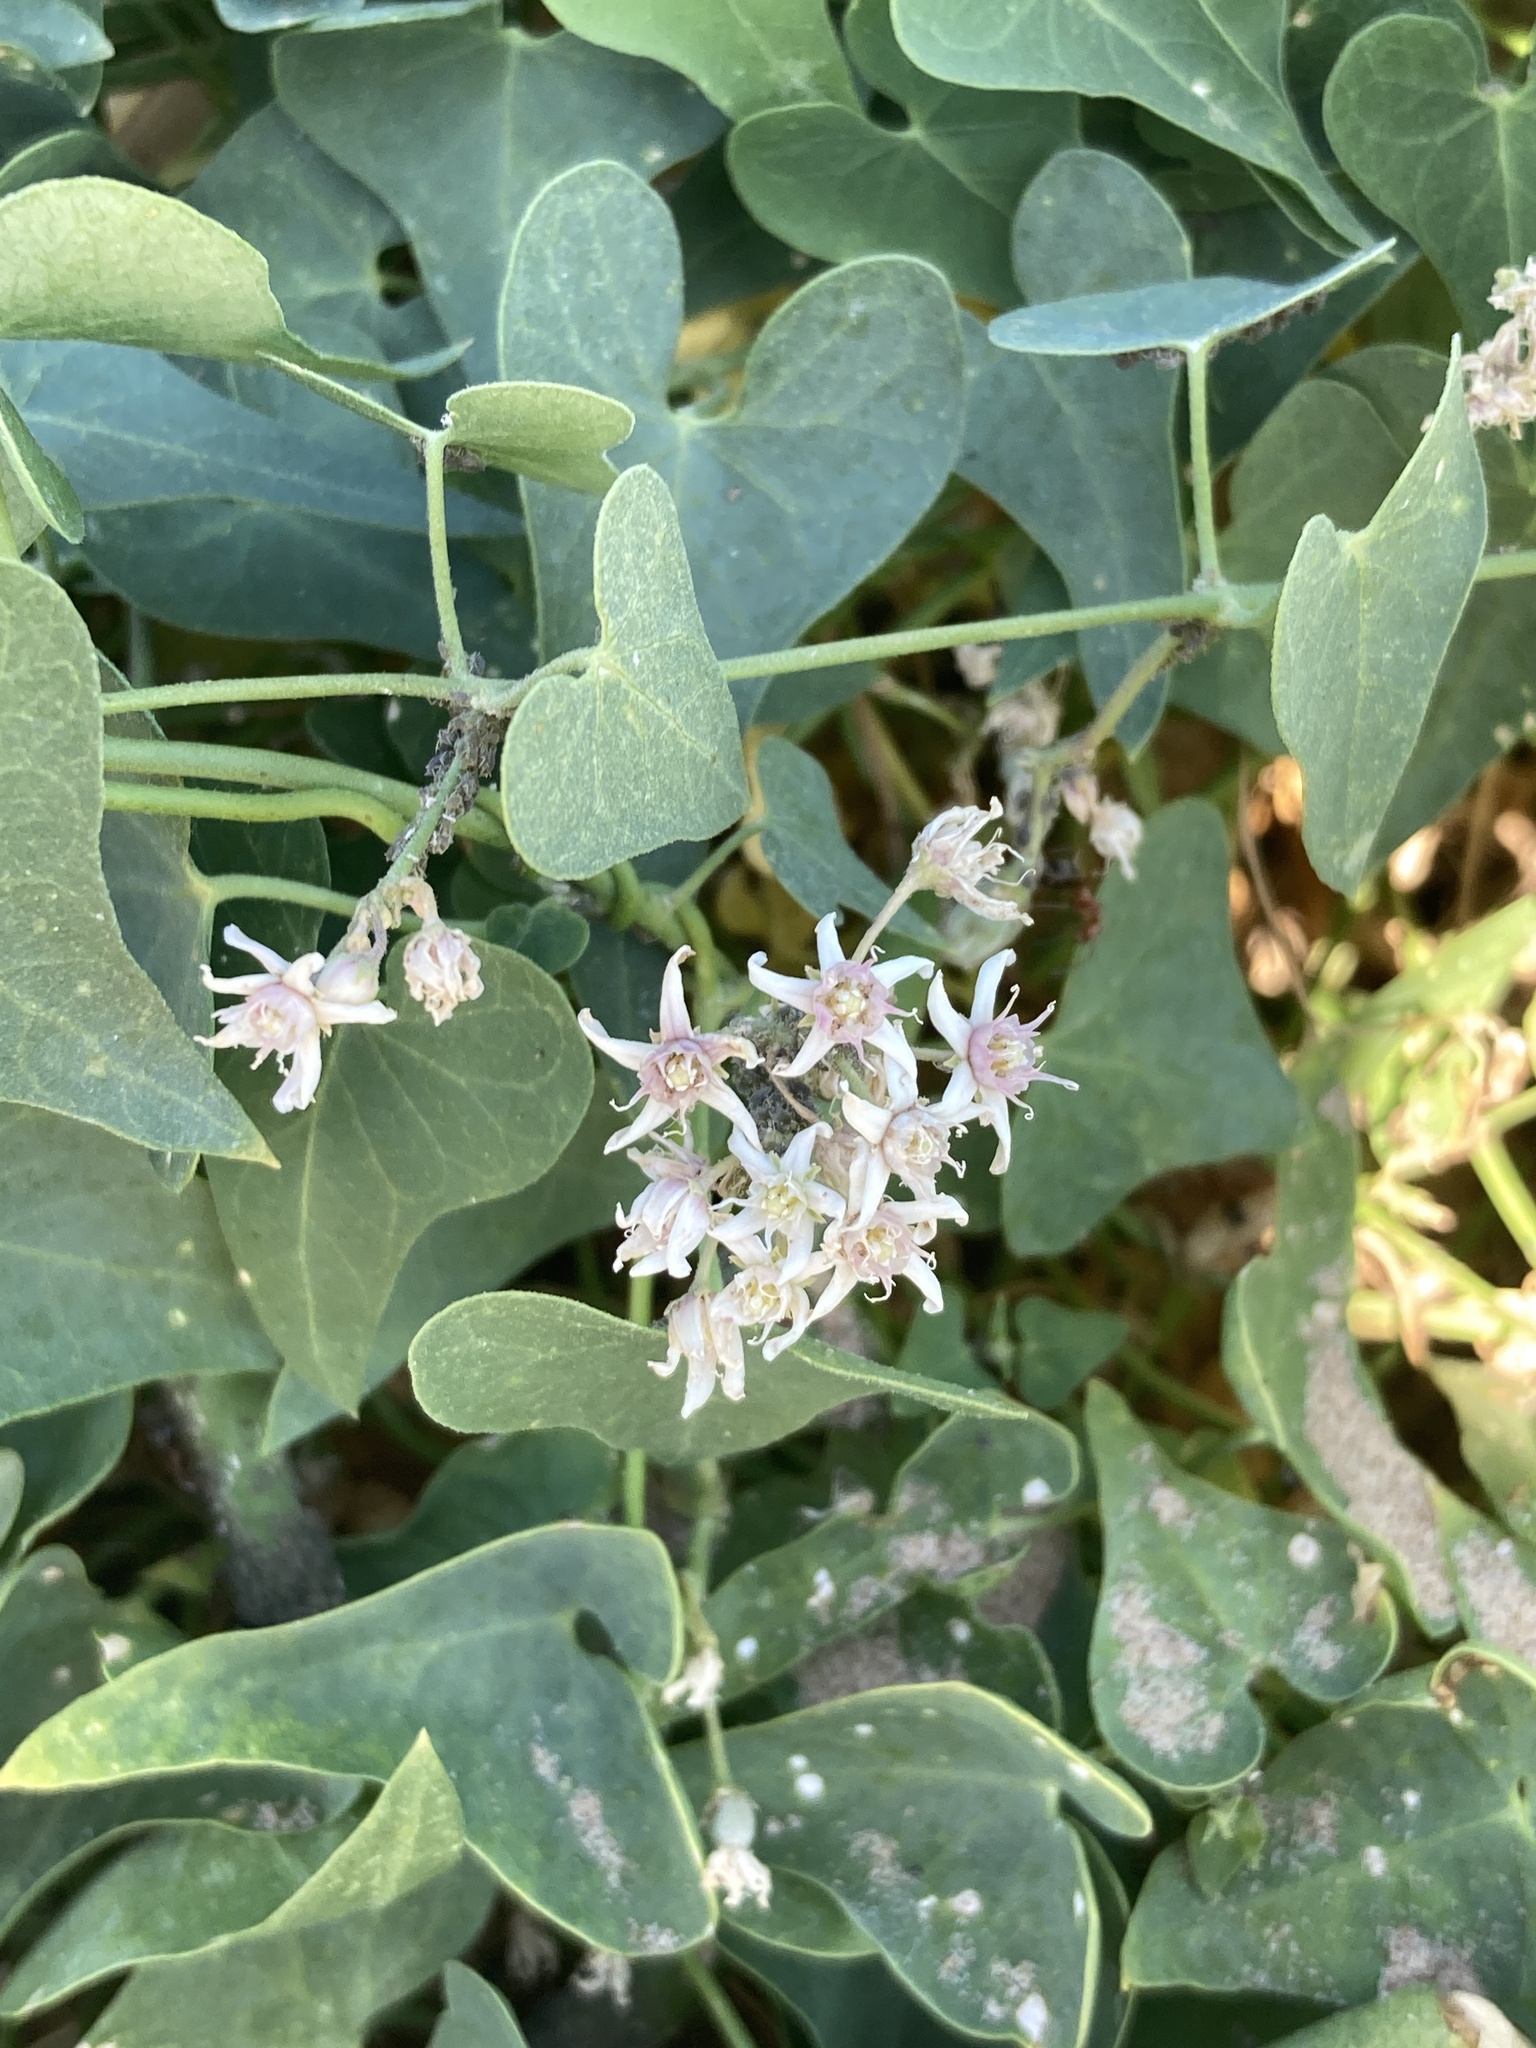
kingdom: Plantae
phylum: Tracheophyta
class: Magnoliopsida
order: Gentianales
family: Apocynaceae
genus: Cynanchum
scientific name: Cynanchum acutum
